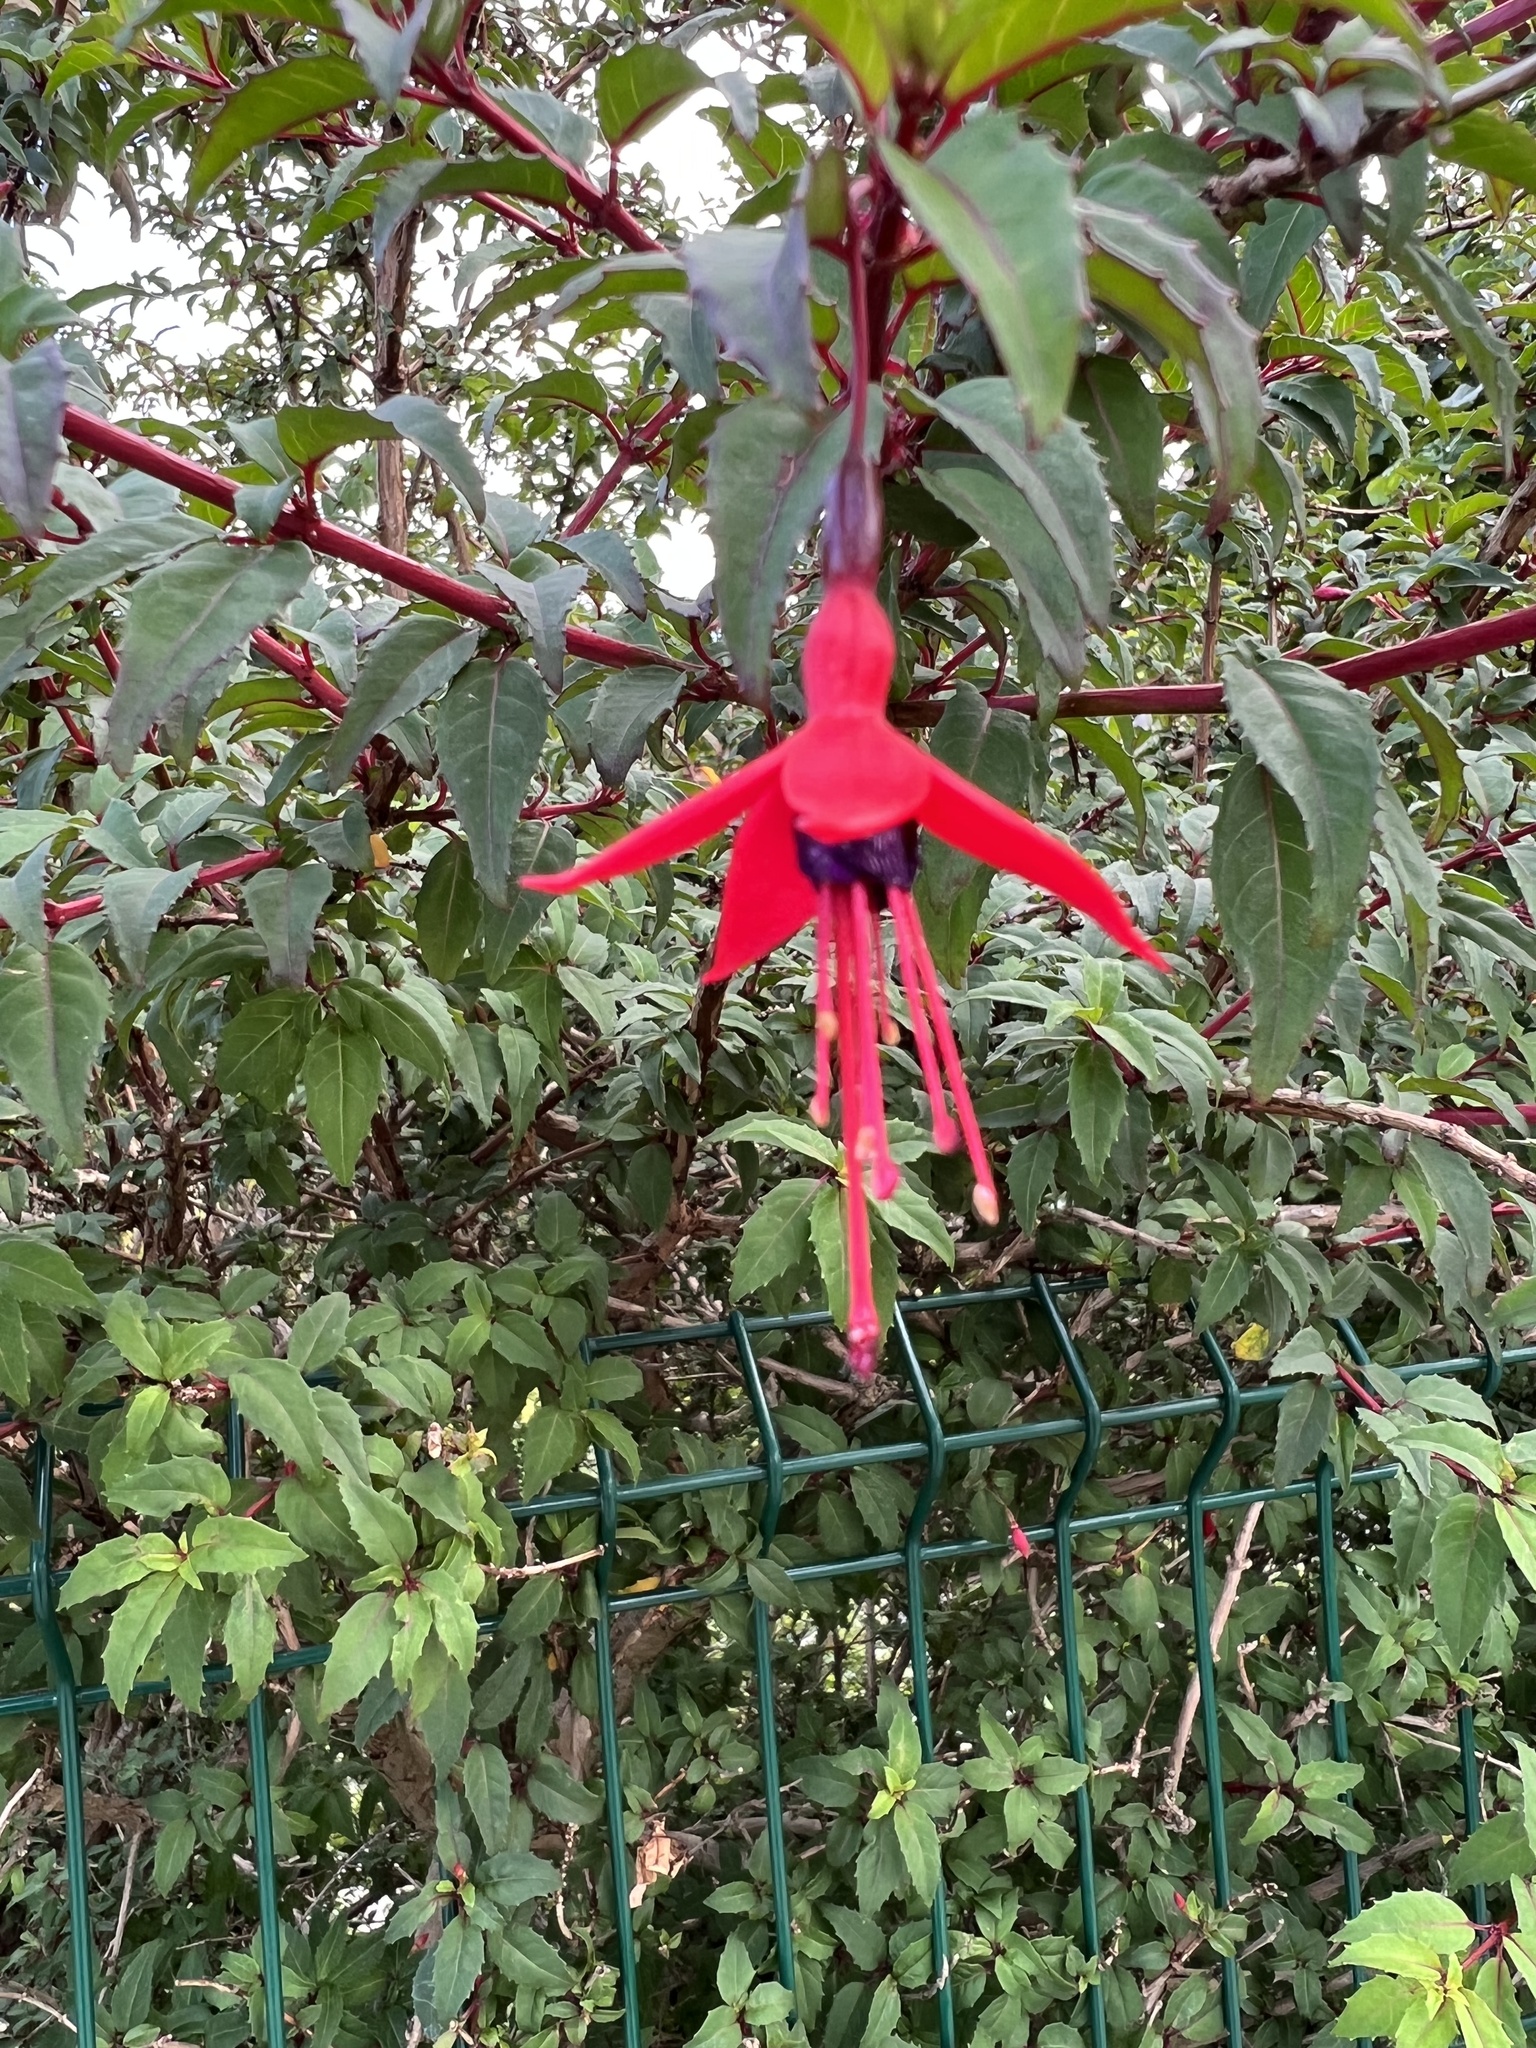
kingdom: Plantae
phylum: Tracheophyta
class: Magnoliopsida
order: Myrtales
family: Onagraceae
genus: Fuchsia
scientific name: Fuchsia magellanica
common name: Hardy fuchsia
